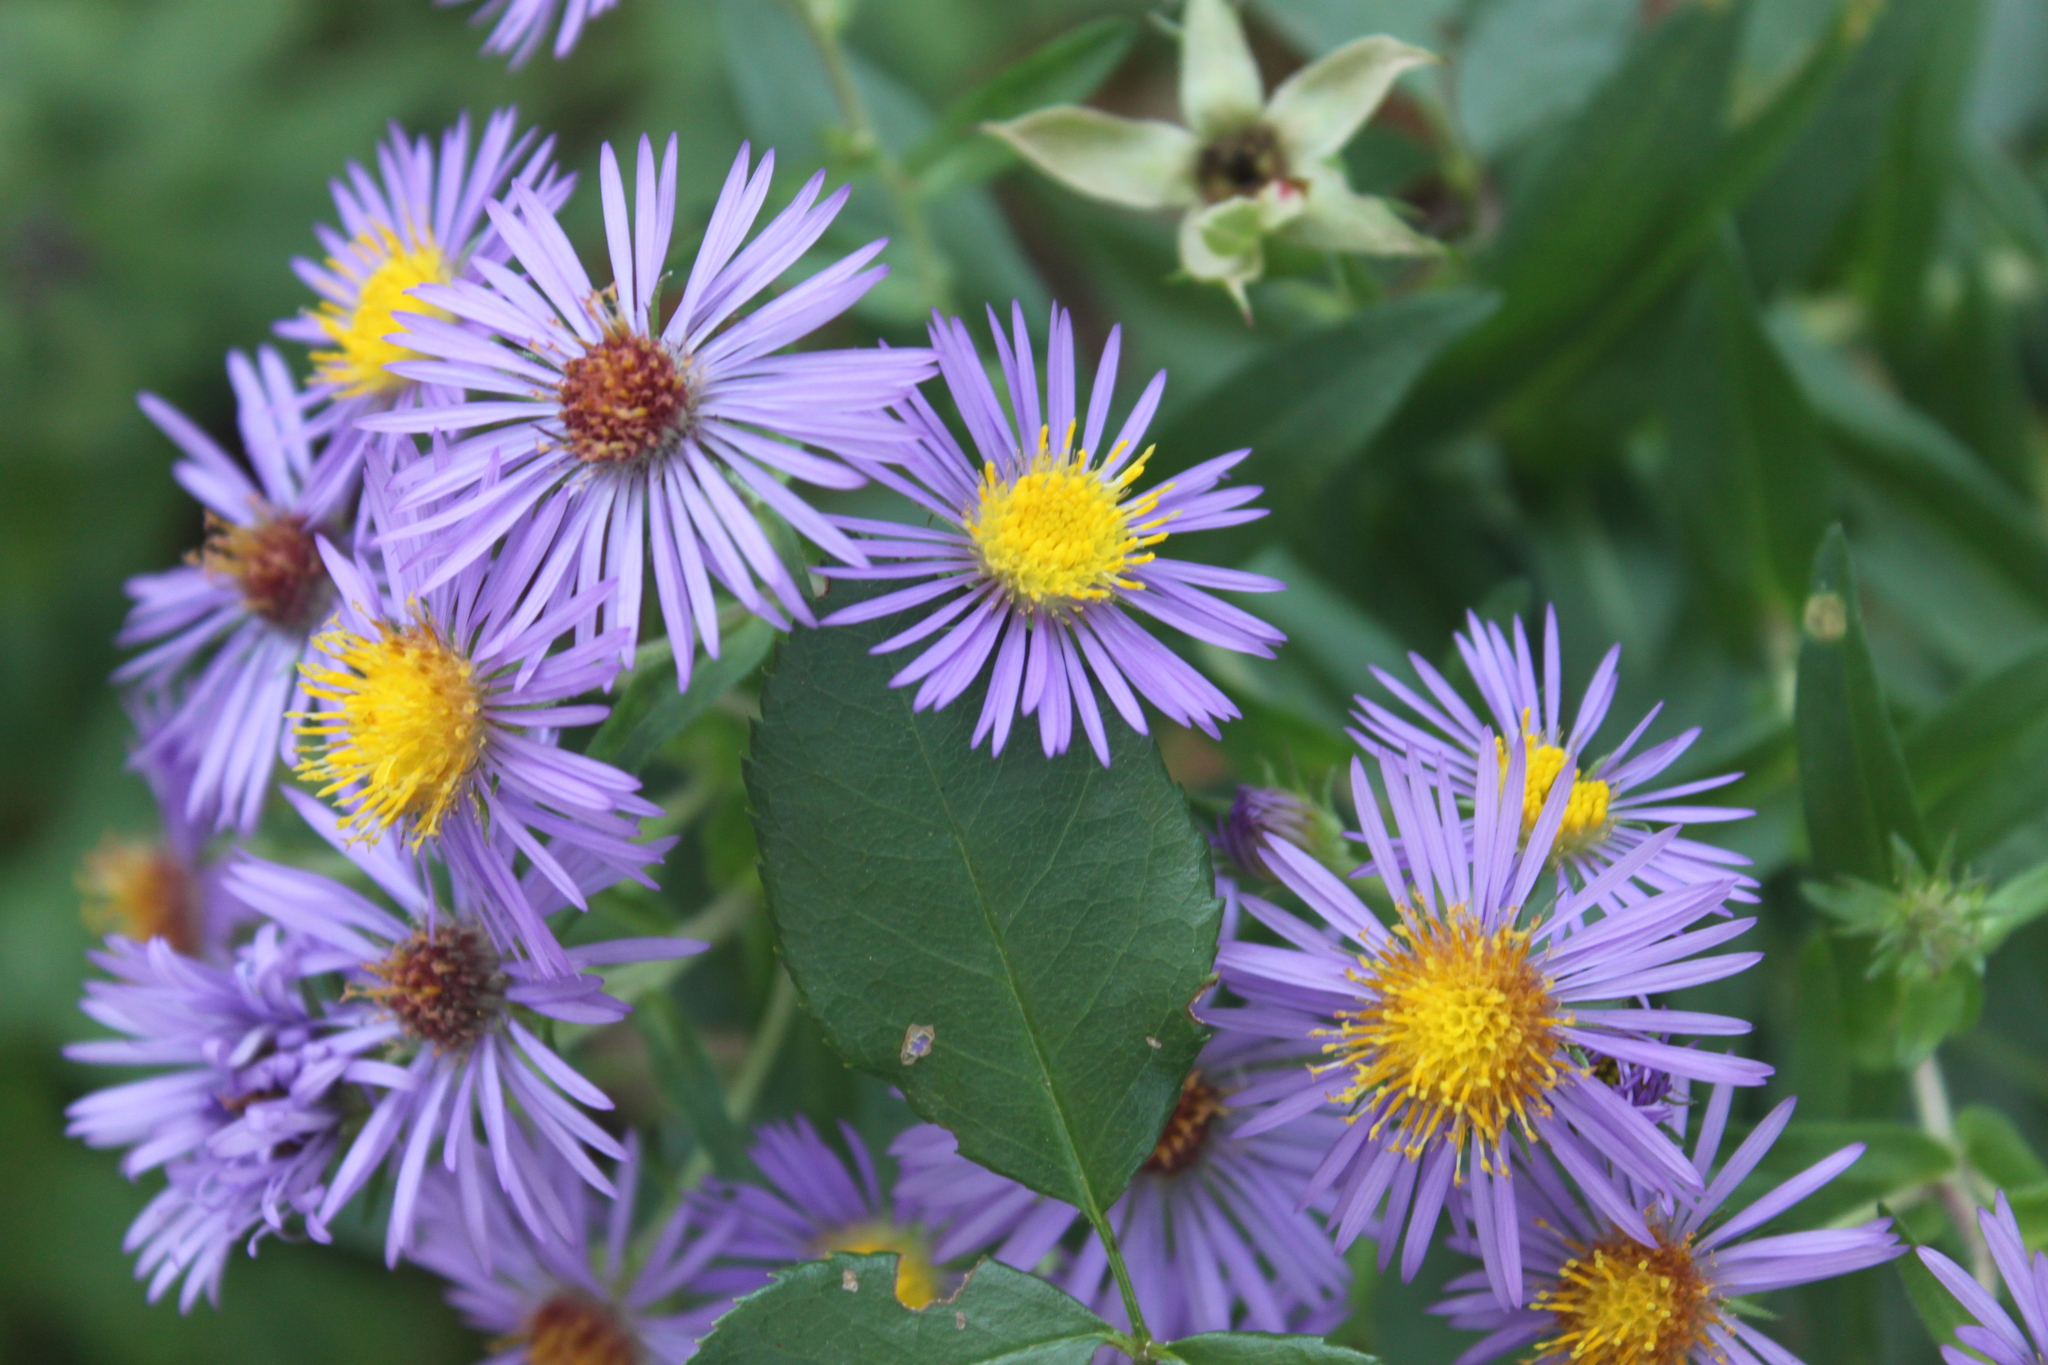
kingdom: Plantae
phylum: Tracheophyta
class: Magnoliopsida
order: Asterales
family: Asteraceae
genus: Symphyotrichum
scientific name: Symphyotrichum novae-angliae
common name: Michaelmas daisy
